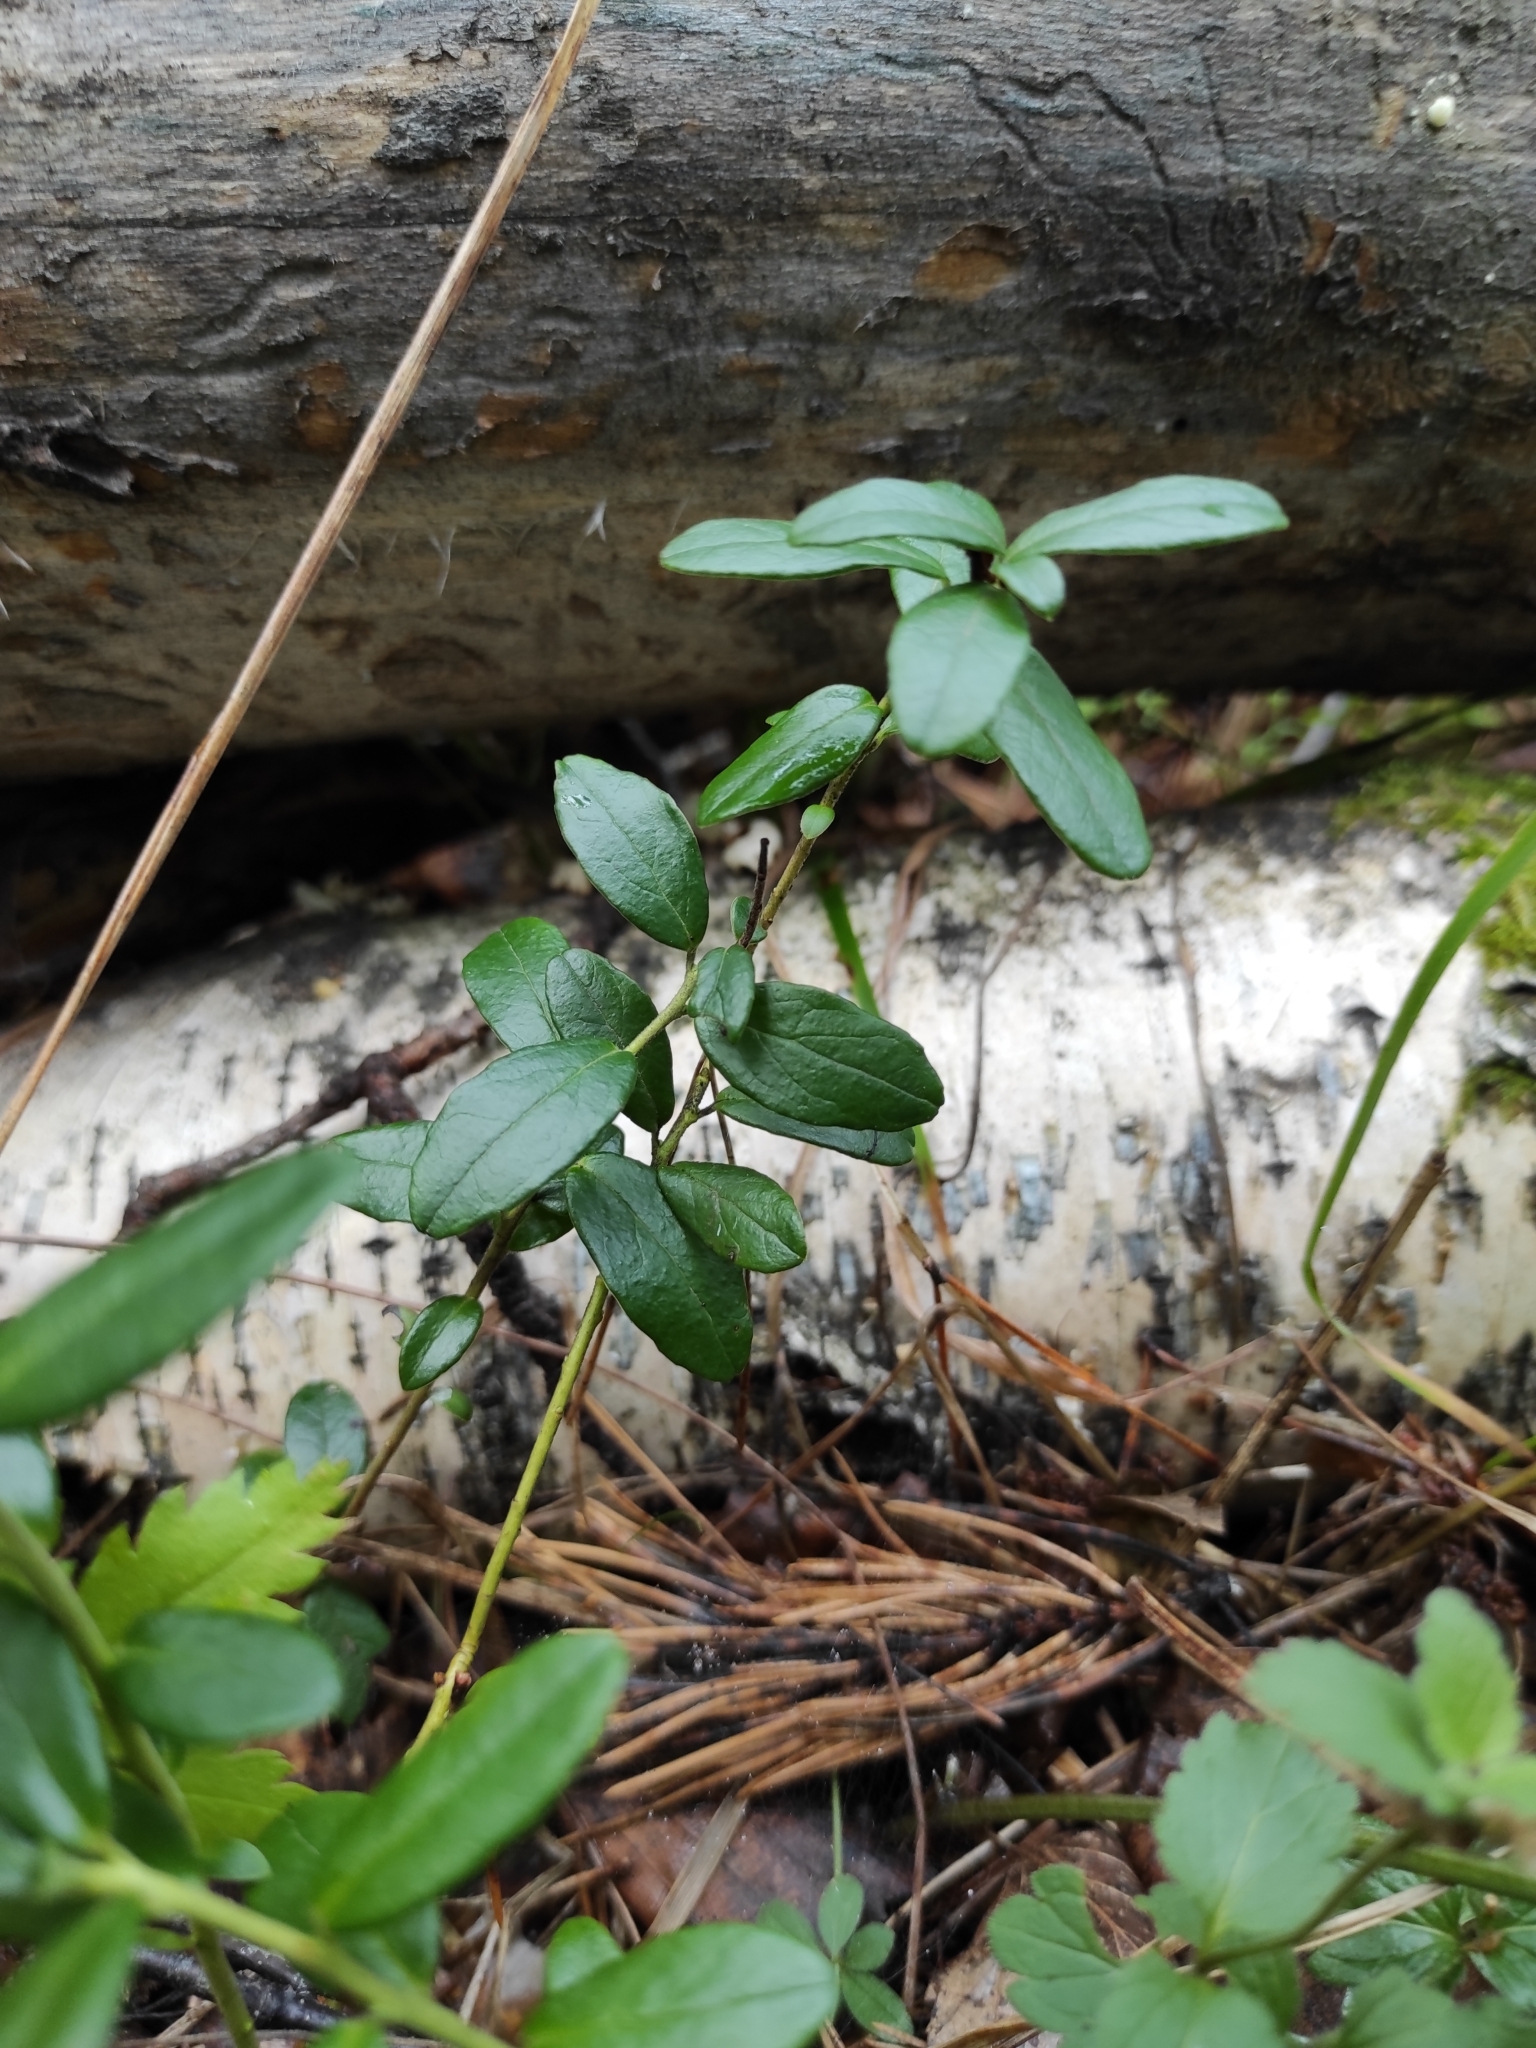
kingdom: Plantae
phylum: Tracheophyta
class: Magnoliopsida
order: Ericales
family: Ericaceae
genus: Vaccinium
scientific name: Vaccinium vitis-idaea
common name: Cowberry
